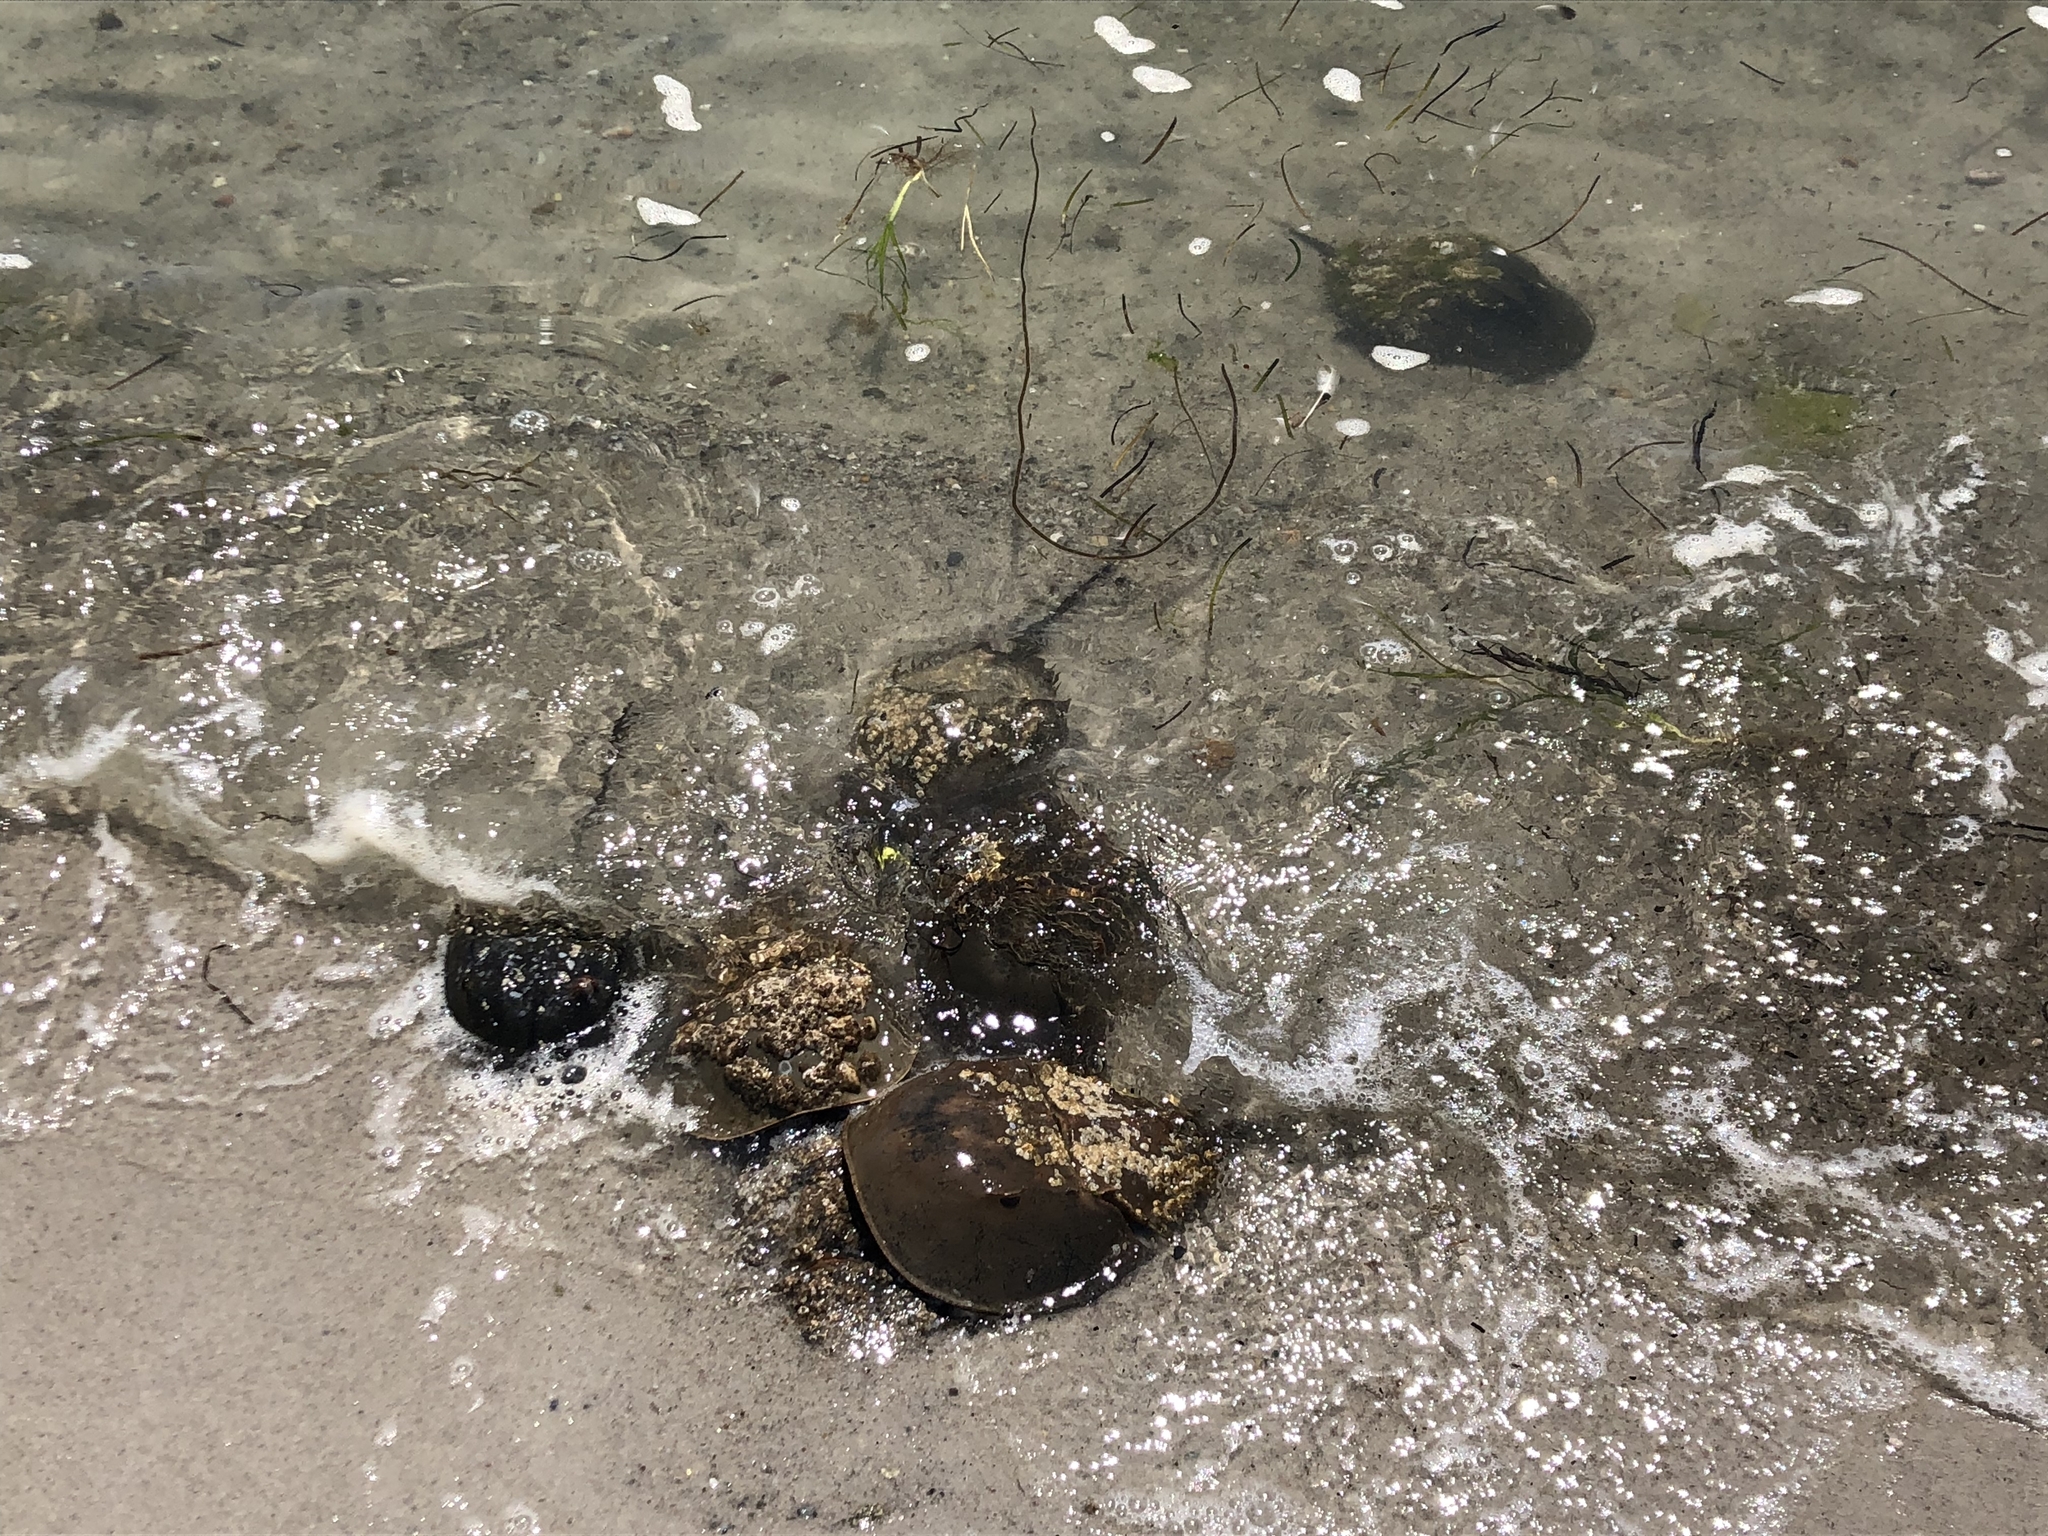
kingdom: Animalia
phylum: Arthropoda
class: Merostomata
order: Xiphosurida
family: Limulidae
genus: Limulus
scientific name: Limulus polyphemus
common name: Horseshoe crab
